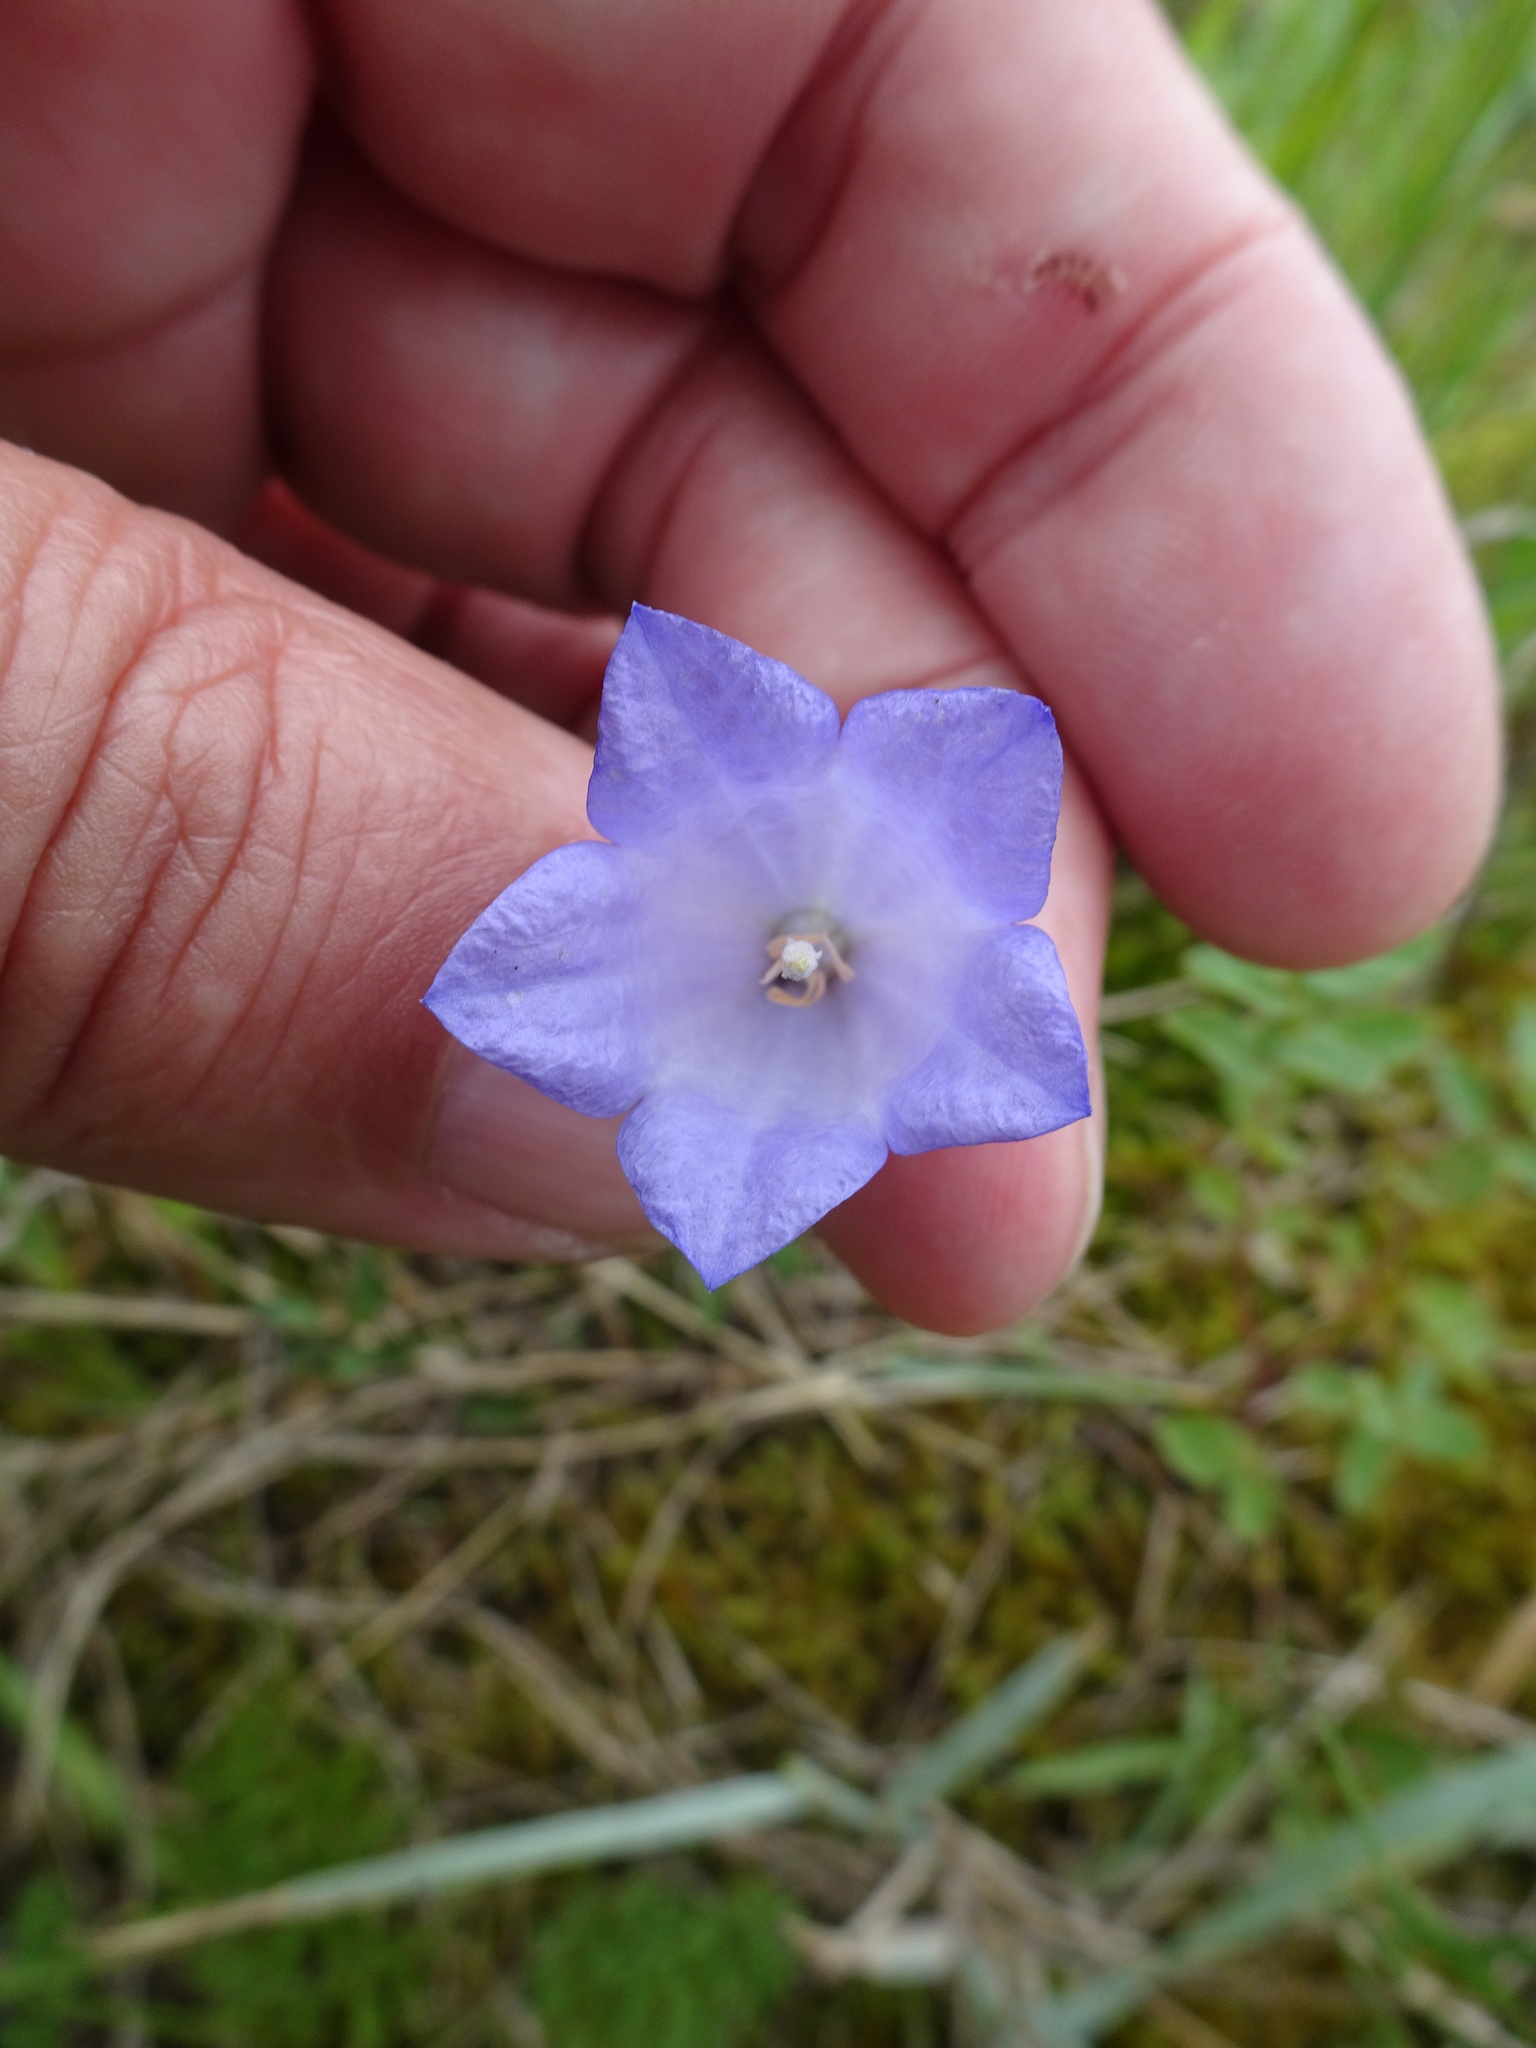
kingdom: Plantae
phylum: Tracheophyta
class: Magnoliopsida
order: Asterales
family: Campanulaceae
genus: Campanula
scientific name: Campanula rotundifolia
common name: Harebell
